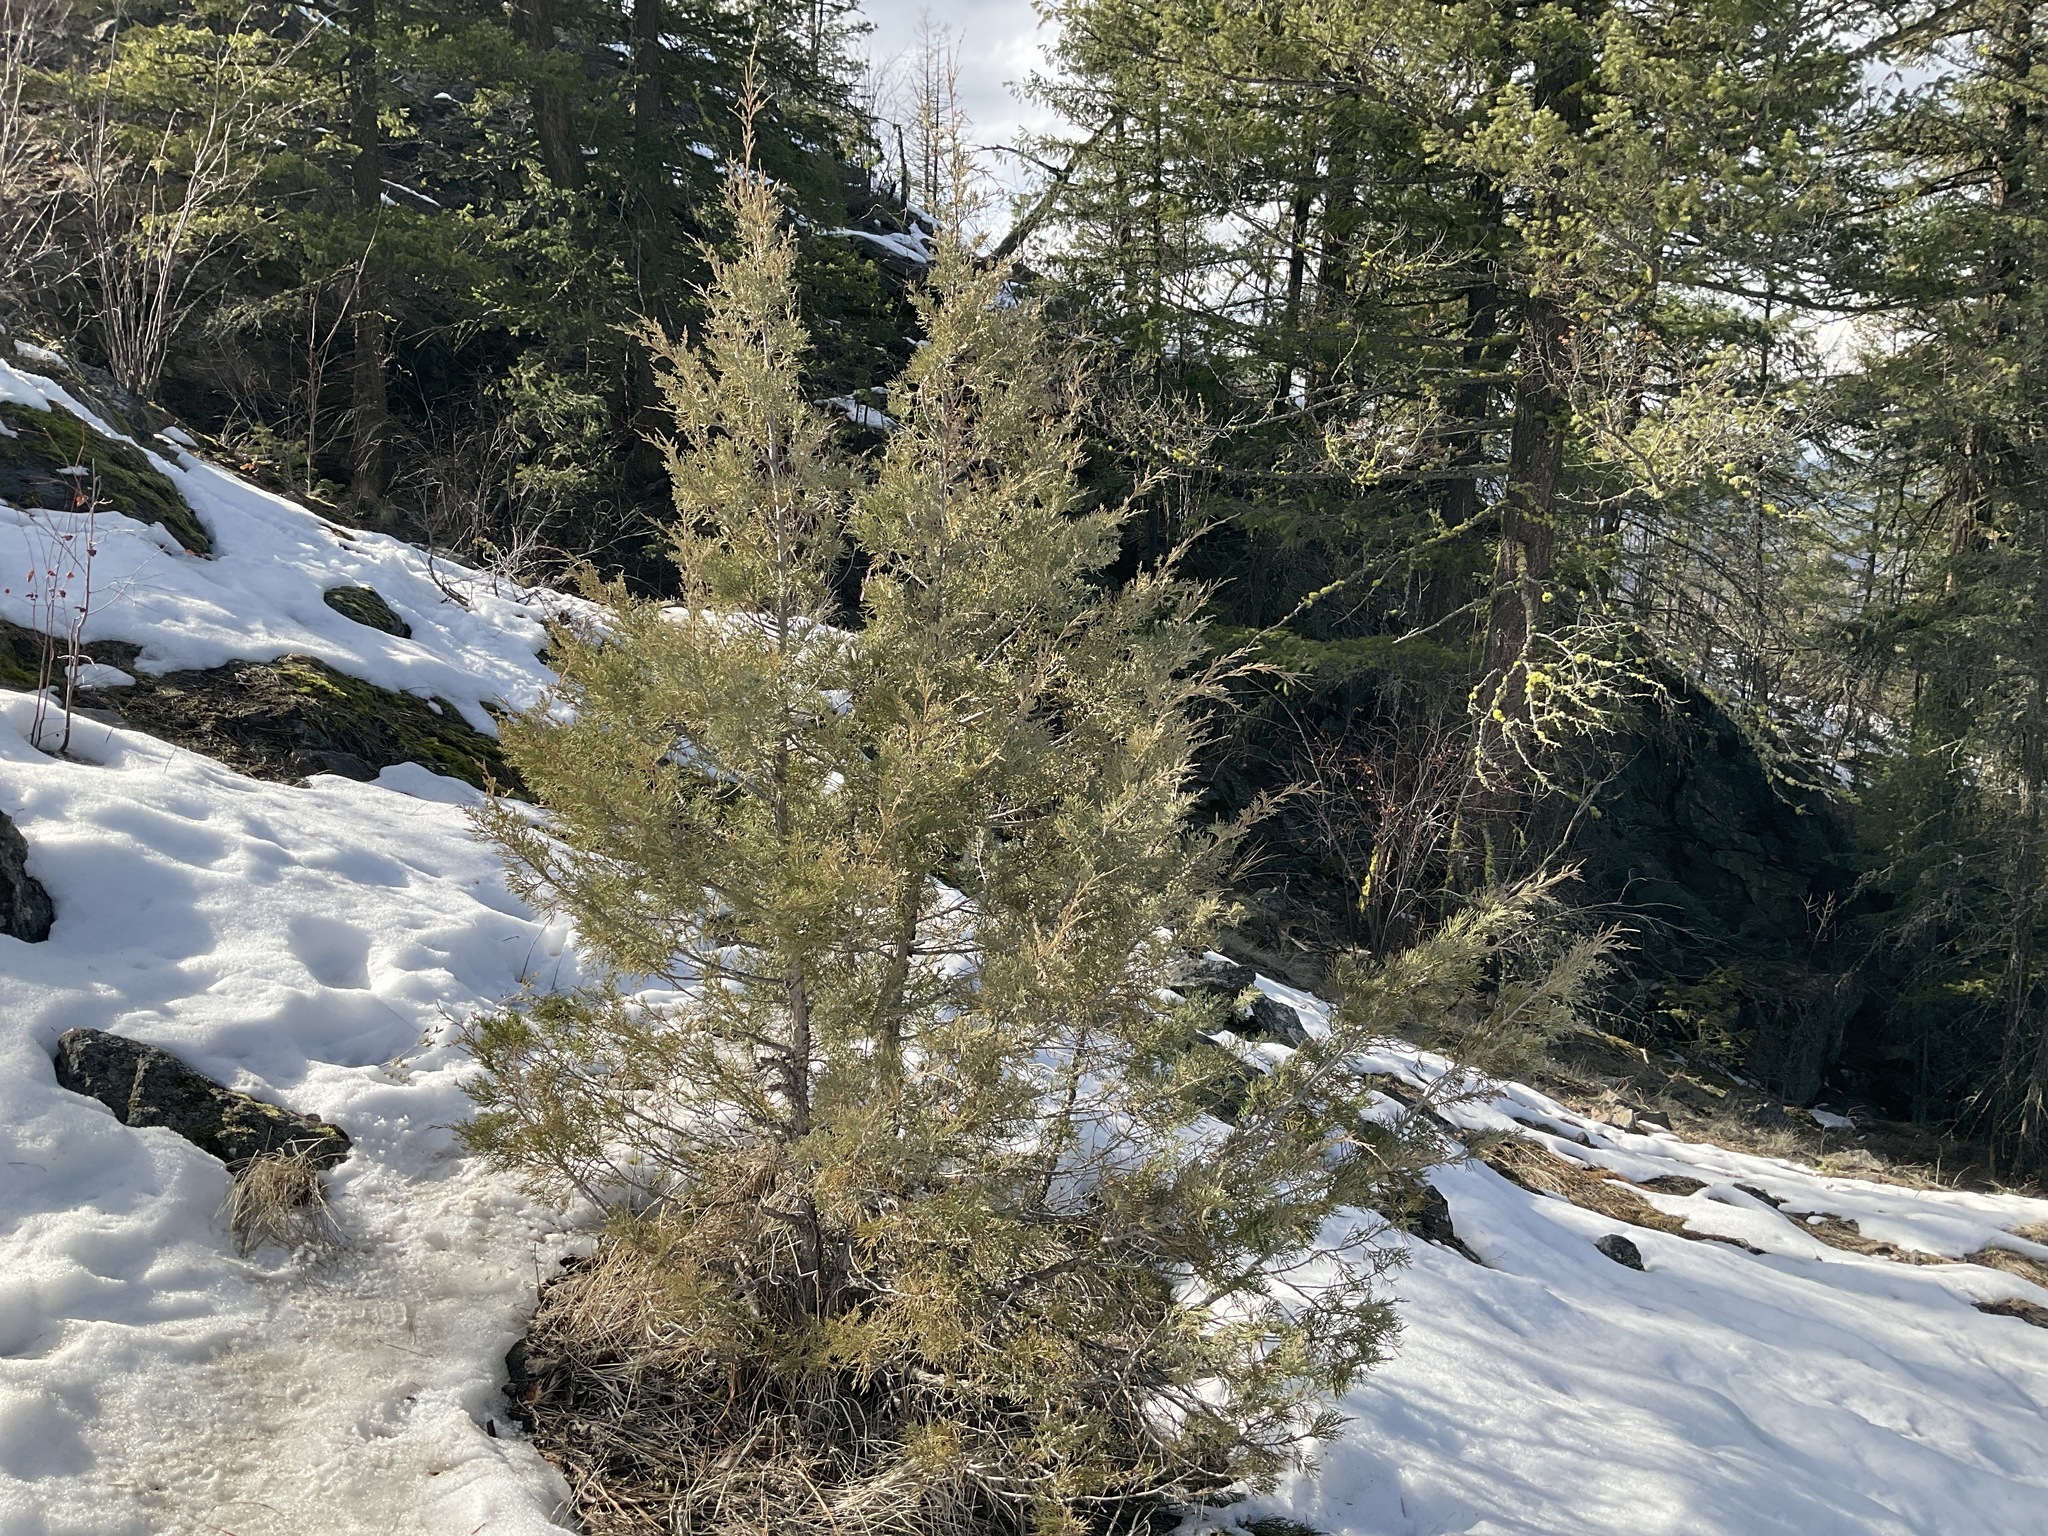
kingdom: Plantae
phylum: Tracheophyta
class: Pinopsida
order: Pinales
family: Cupressaceae
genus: Juniperus
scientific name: Juniperus scopulorum
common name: Rocky mountain juniper
